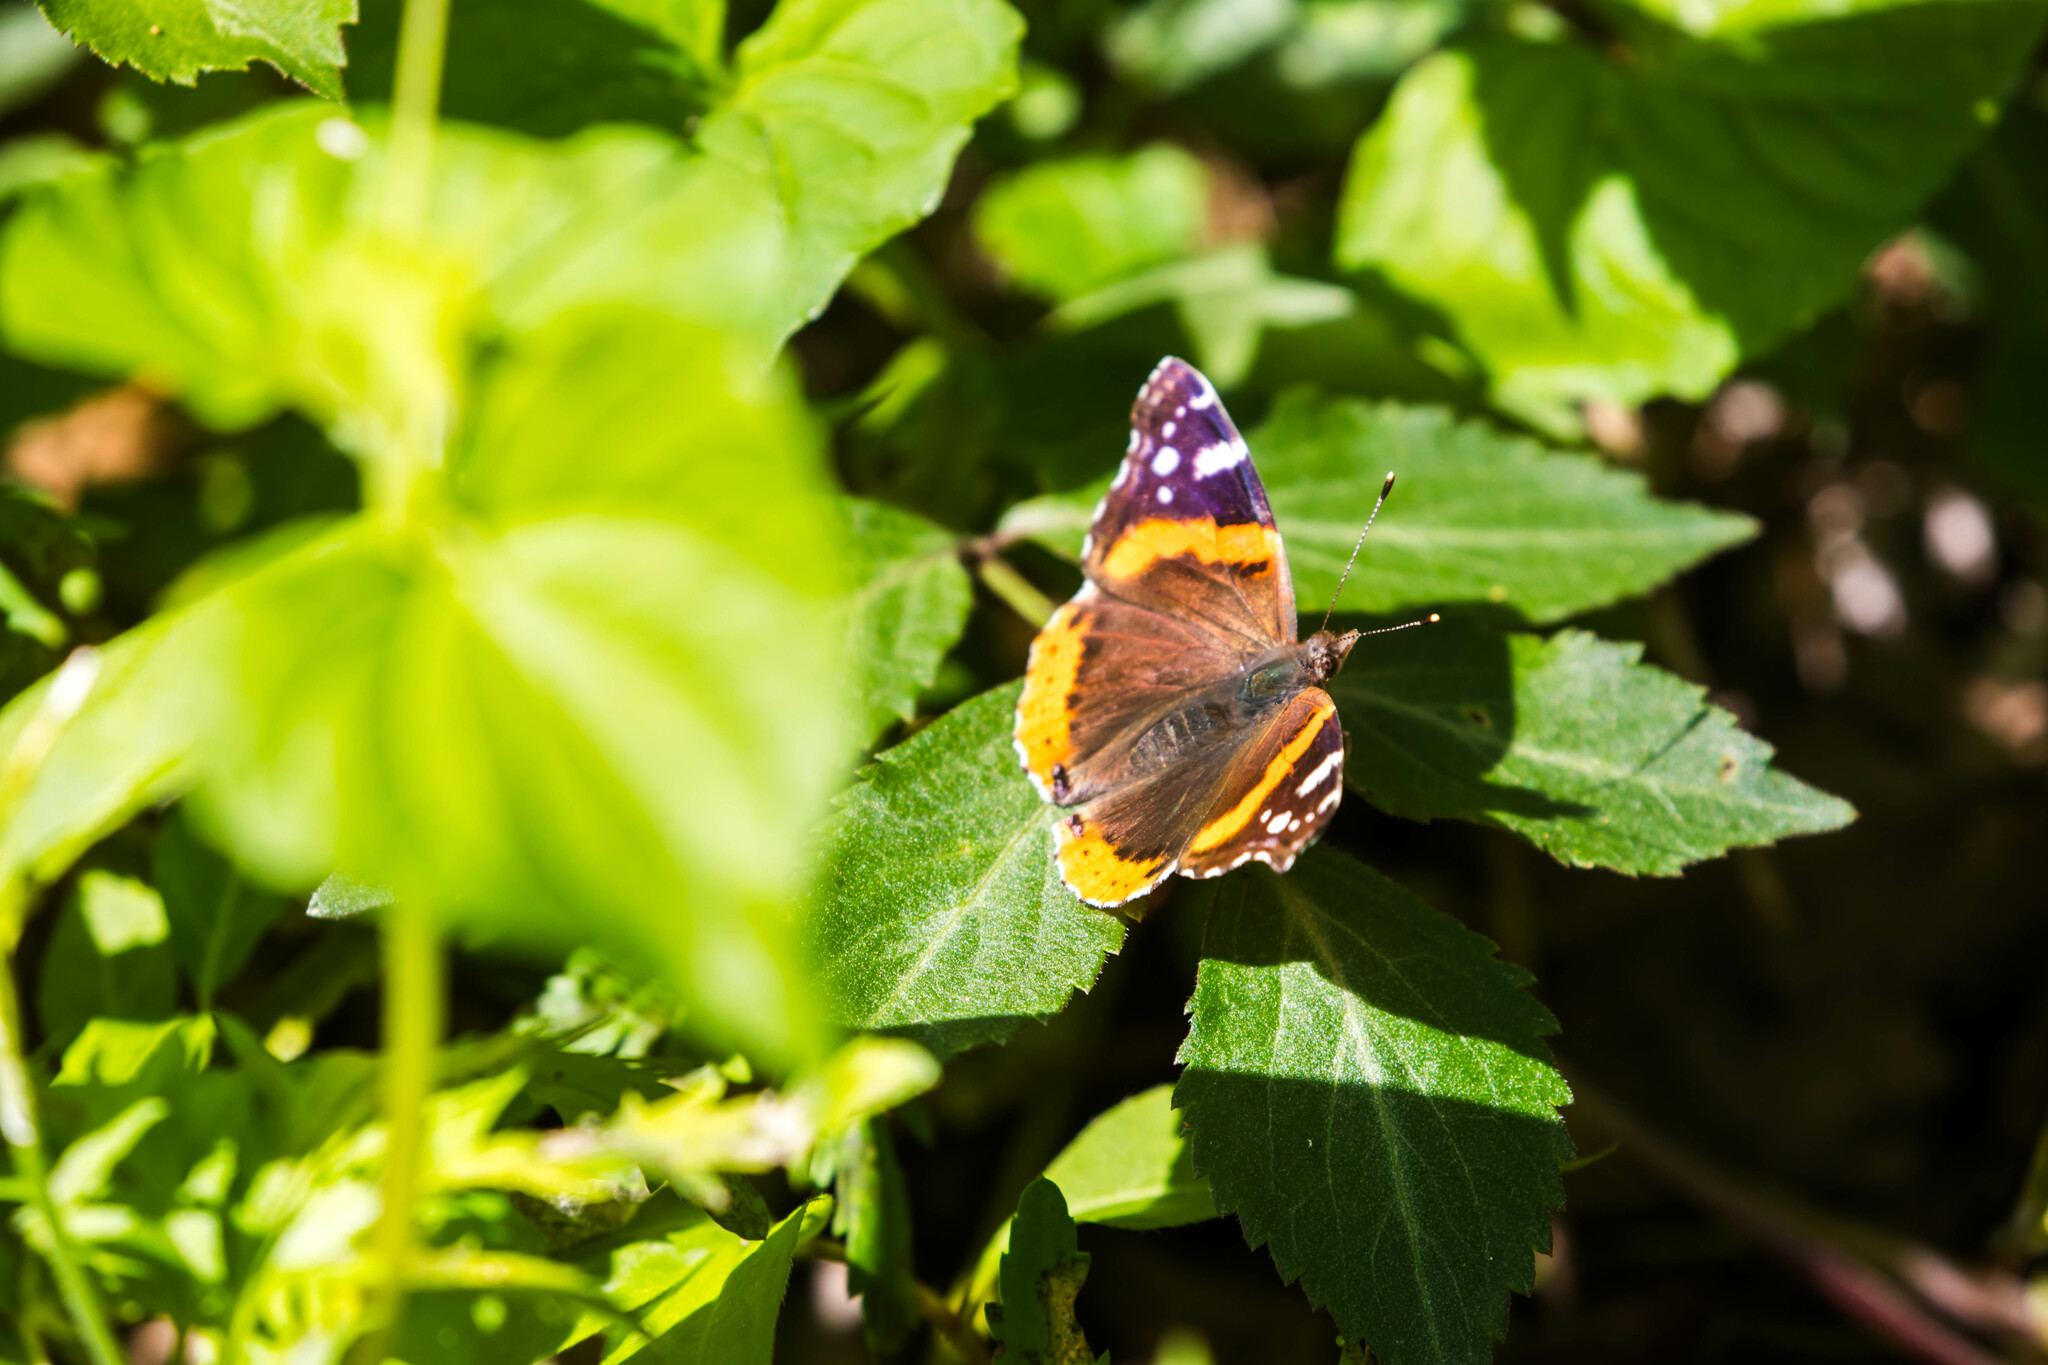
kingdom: Animalia
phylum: Arthropoda
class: Insecta
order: Lepidoptera
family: Nymphalidae
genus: Vanessa
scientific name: Vanessa atalanta
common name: Red admiral
